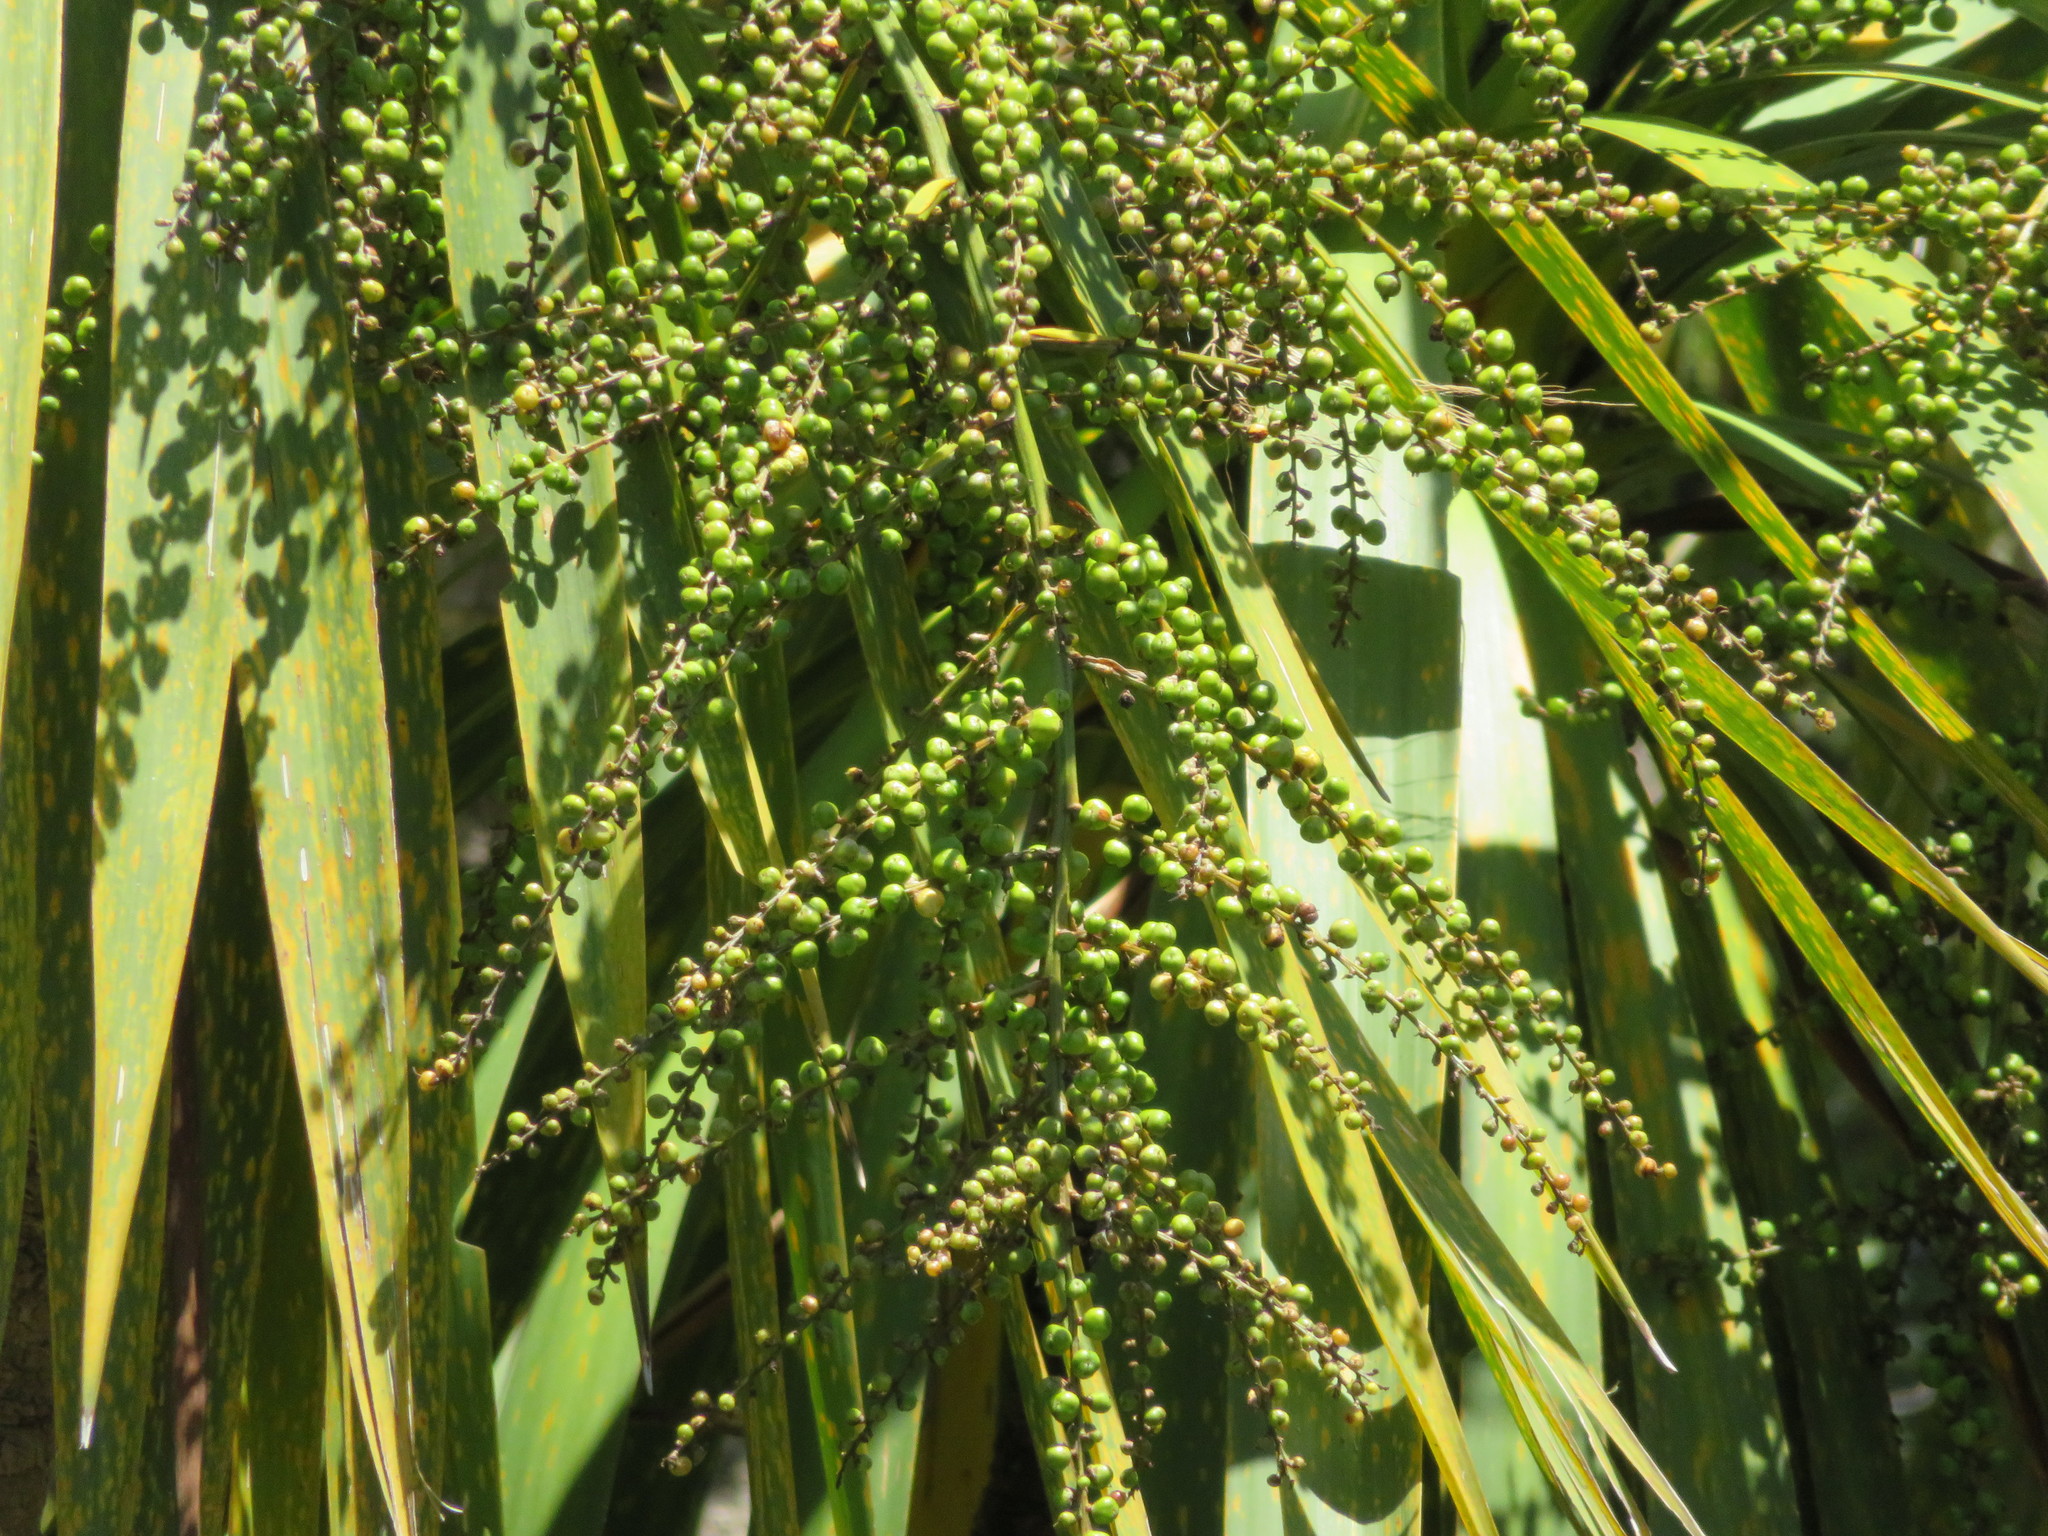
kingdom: Plantae
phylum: Tracheophyta
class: Liliopsida
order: Asparagales
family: Asparagaceae
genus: Cordyline
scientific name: Cordyline australis
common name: Cabbage-palm
